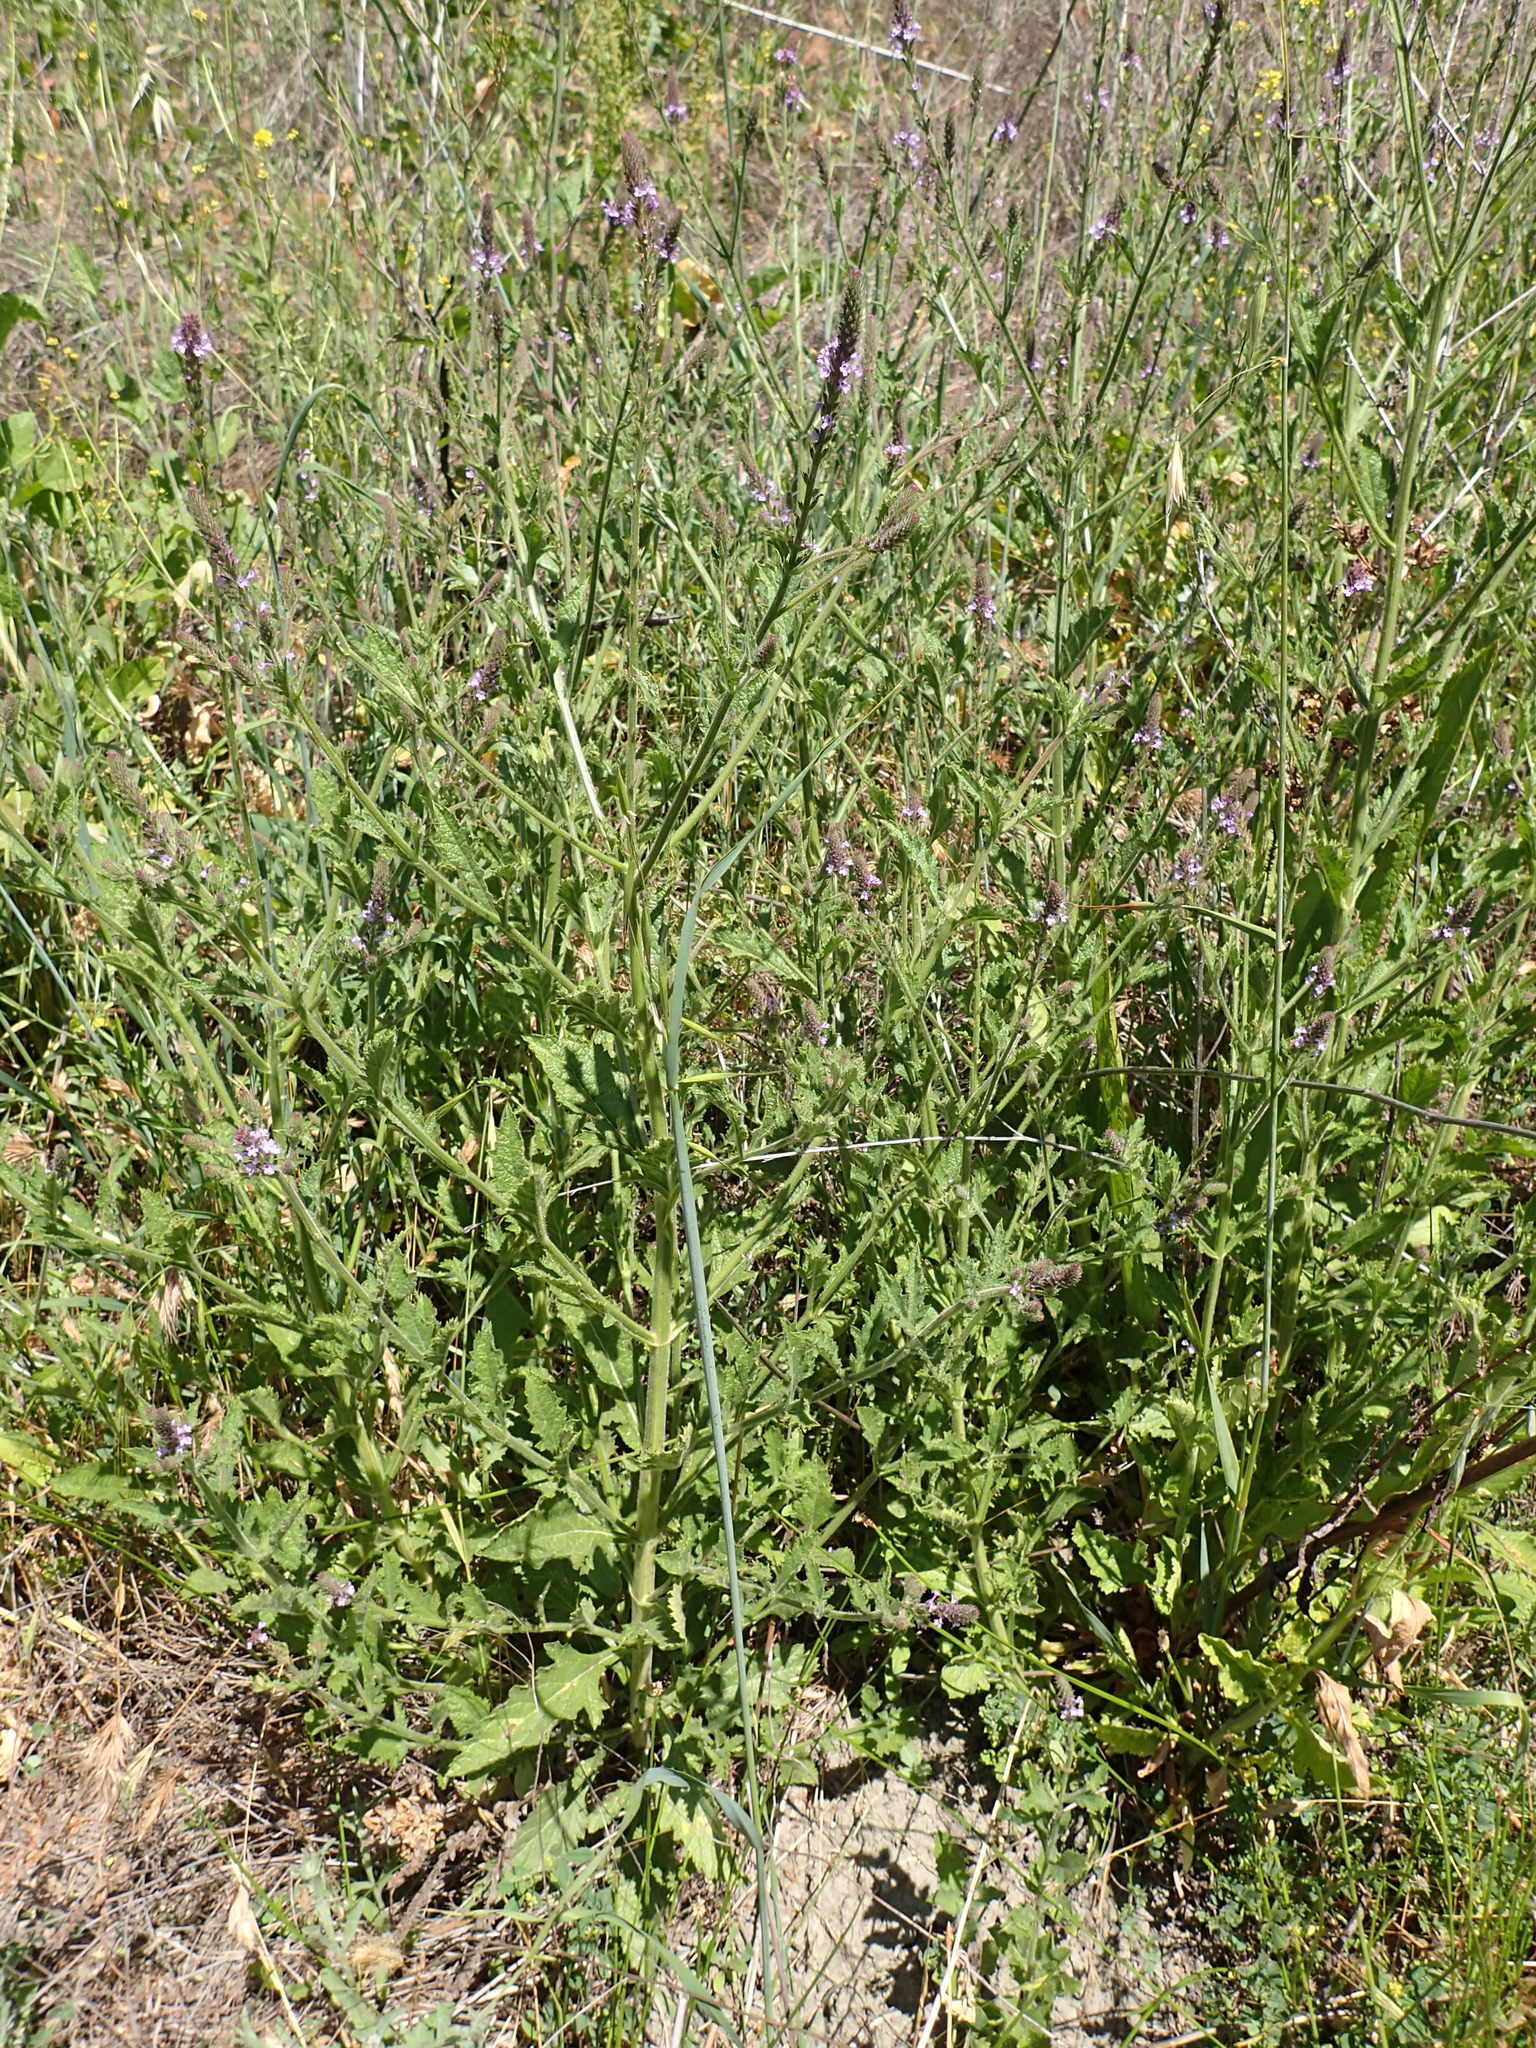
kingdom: Plantae
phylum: Tracheophyta
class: Magnoliopsida
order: Lamiales
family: Verbenaceae
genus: Verbena
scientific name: Verbena lasiostachys
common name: Vervain
